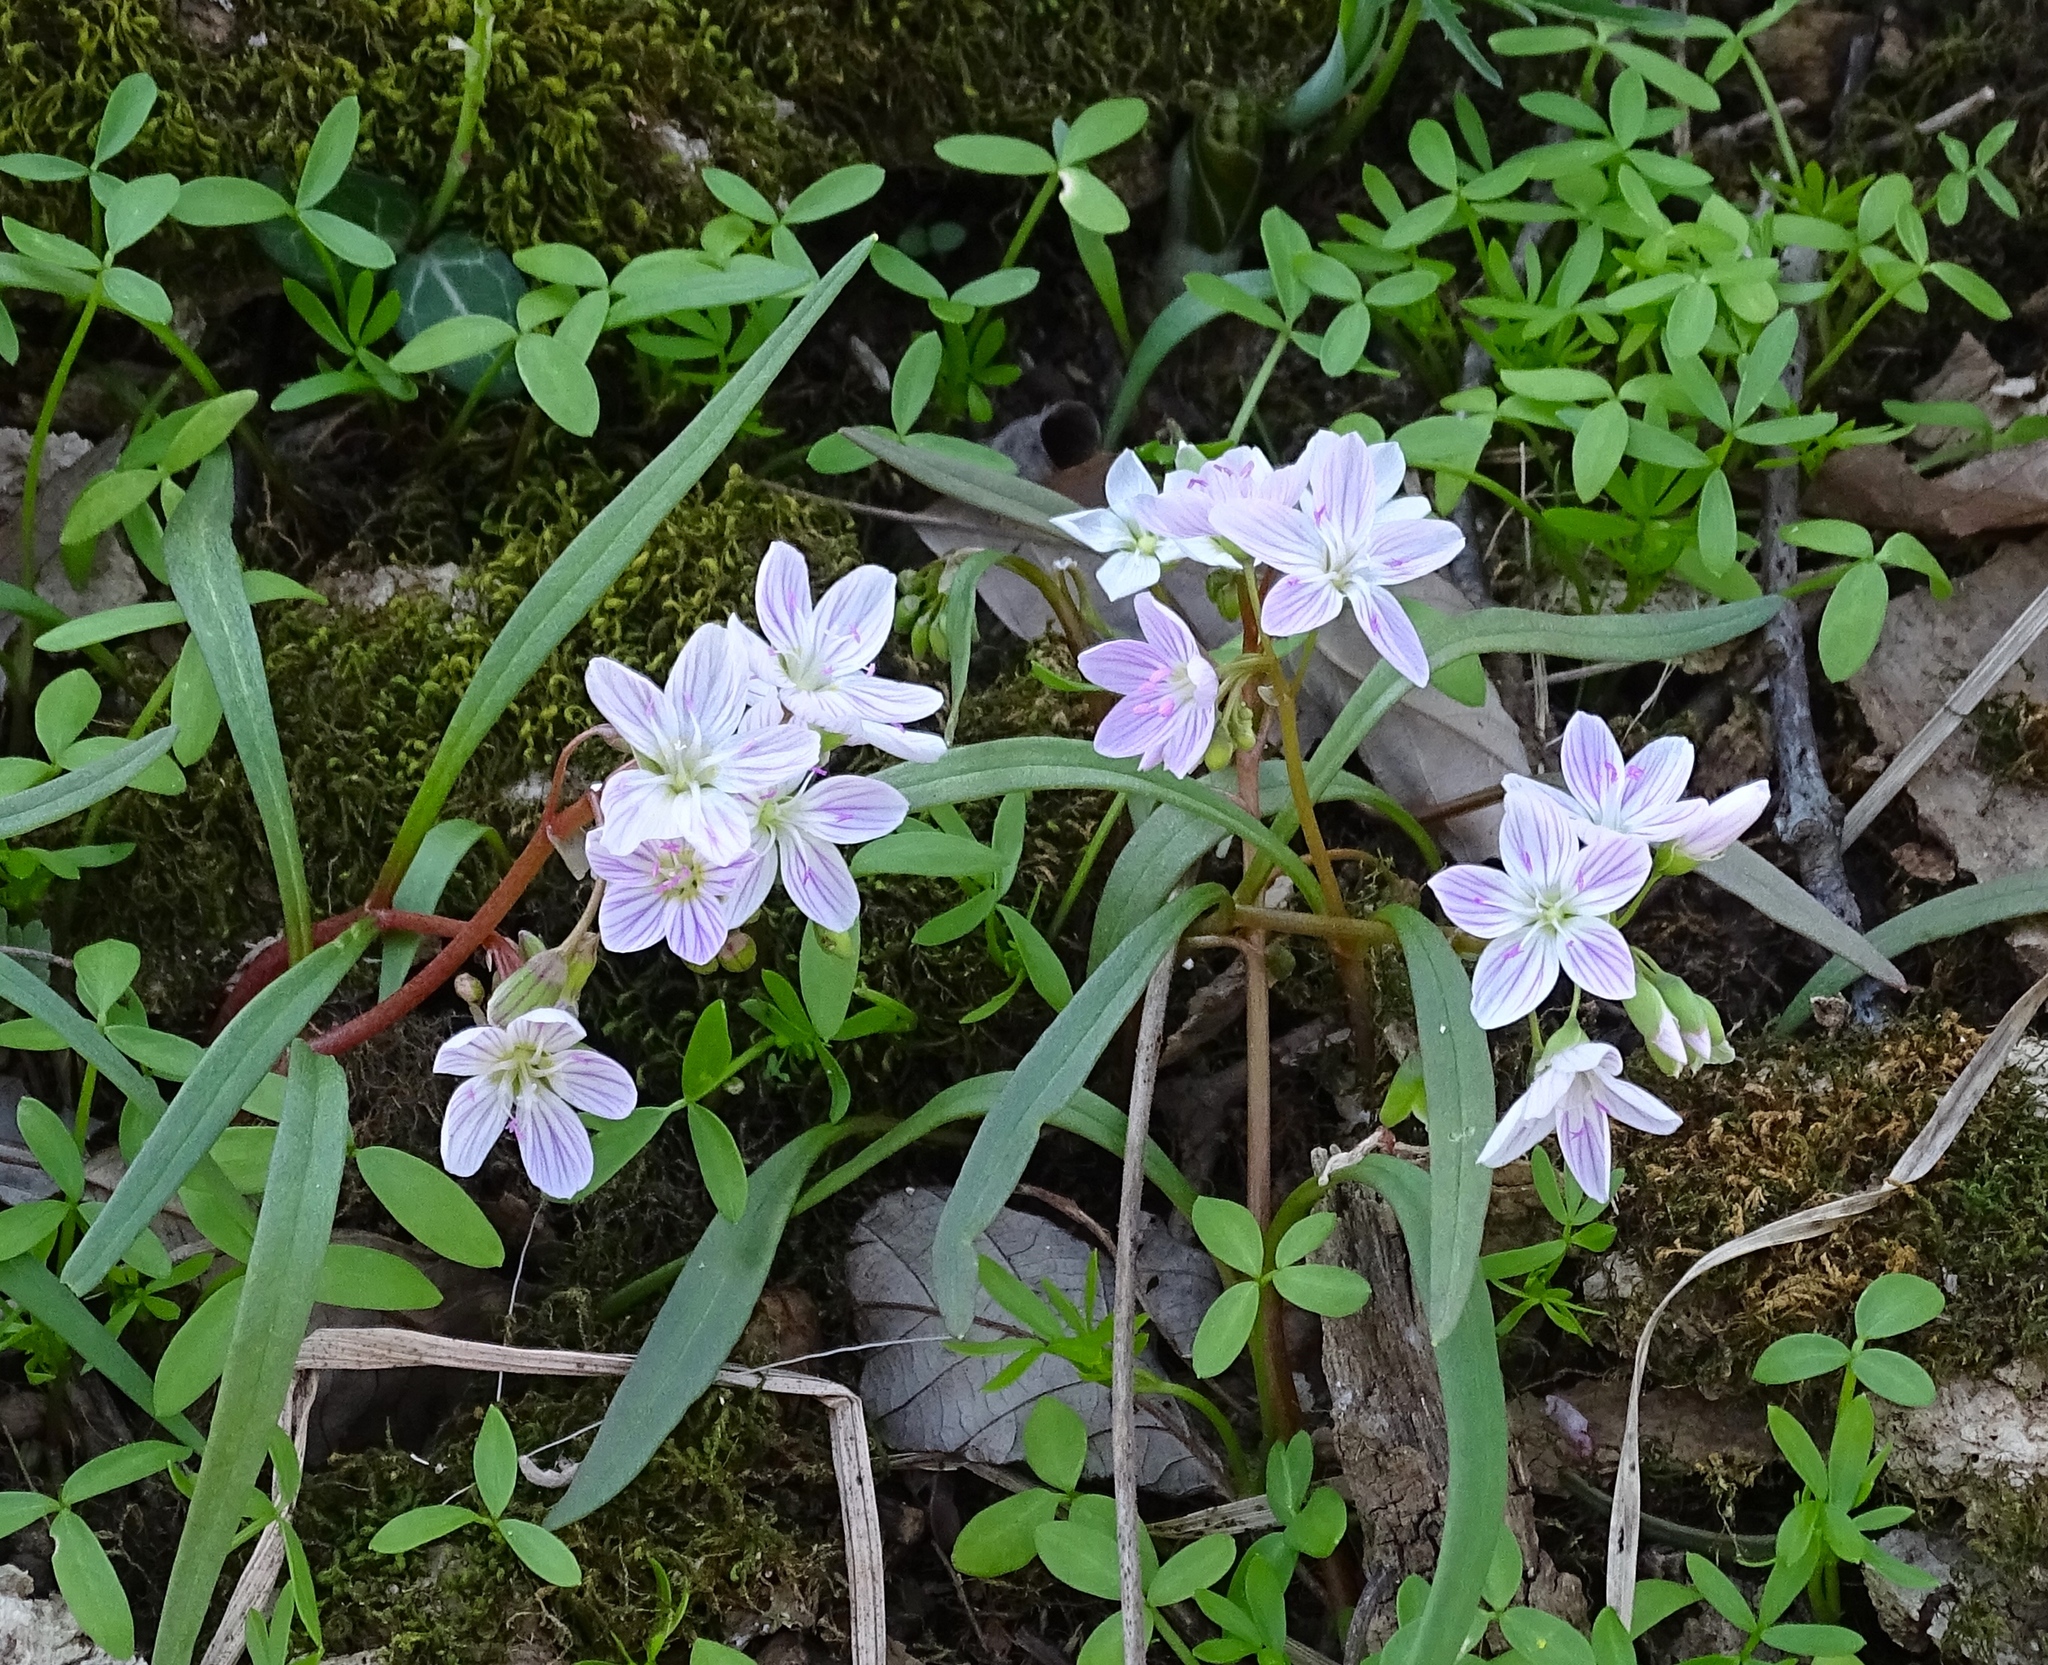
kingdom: Plantae
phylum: Tracheophyta
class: Magnoliopsida
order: Caryophyllales
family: Montiaceae
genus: Claytonia
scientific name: Claytonia virginica
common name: Virginia springbeauty
